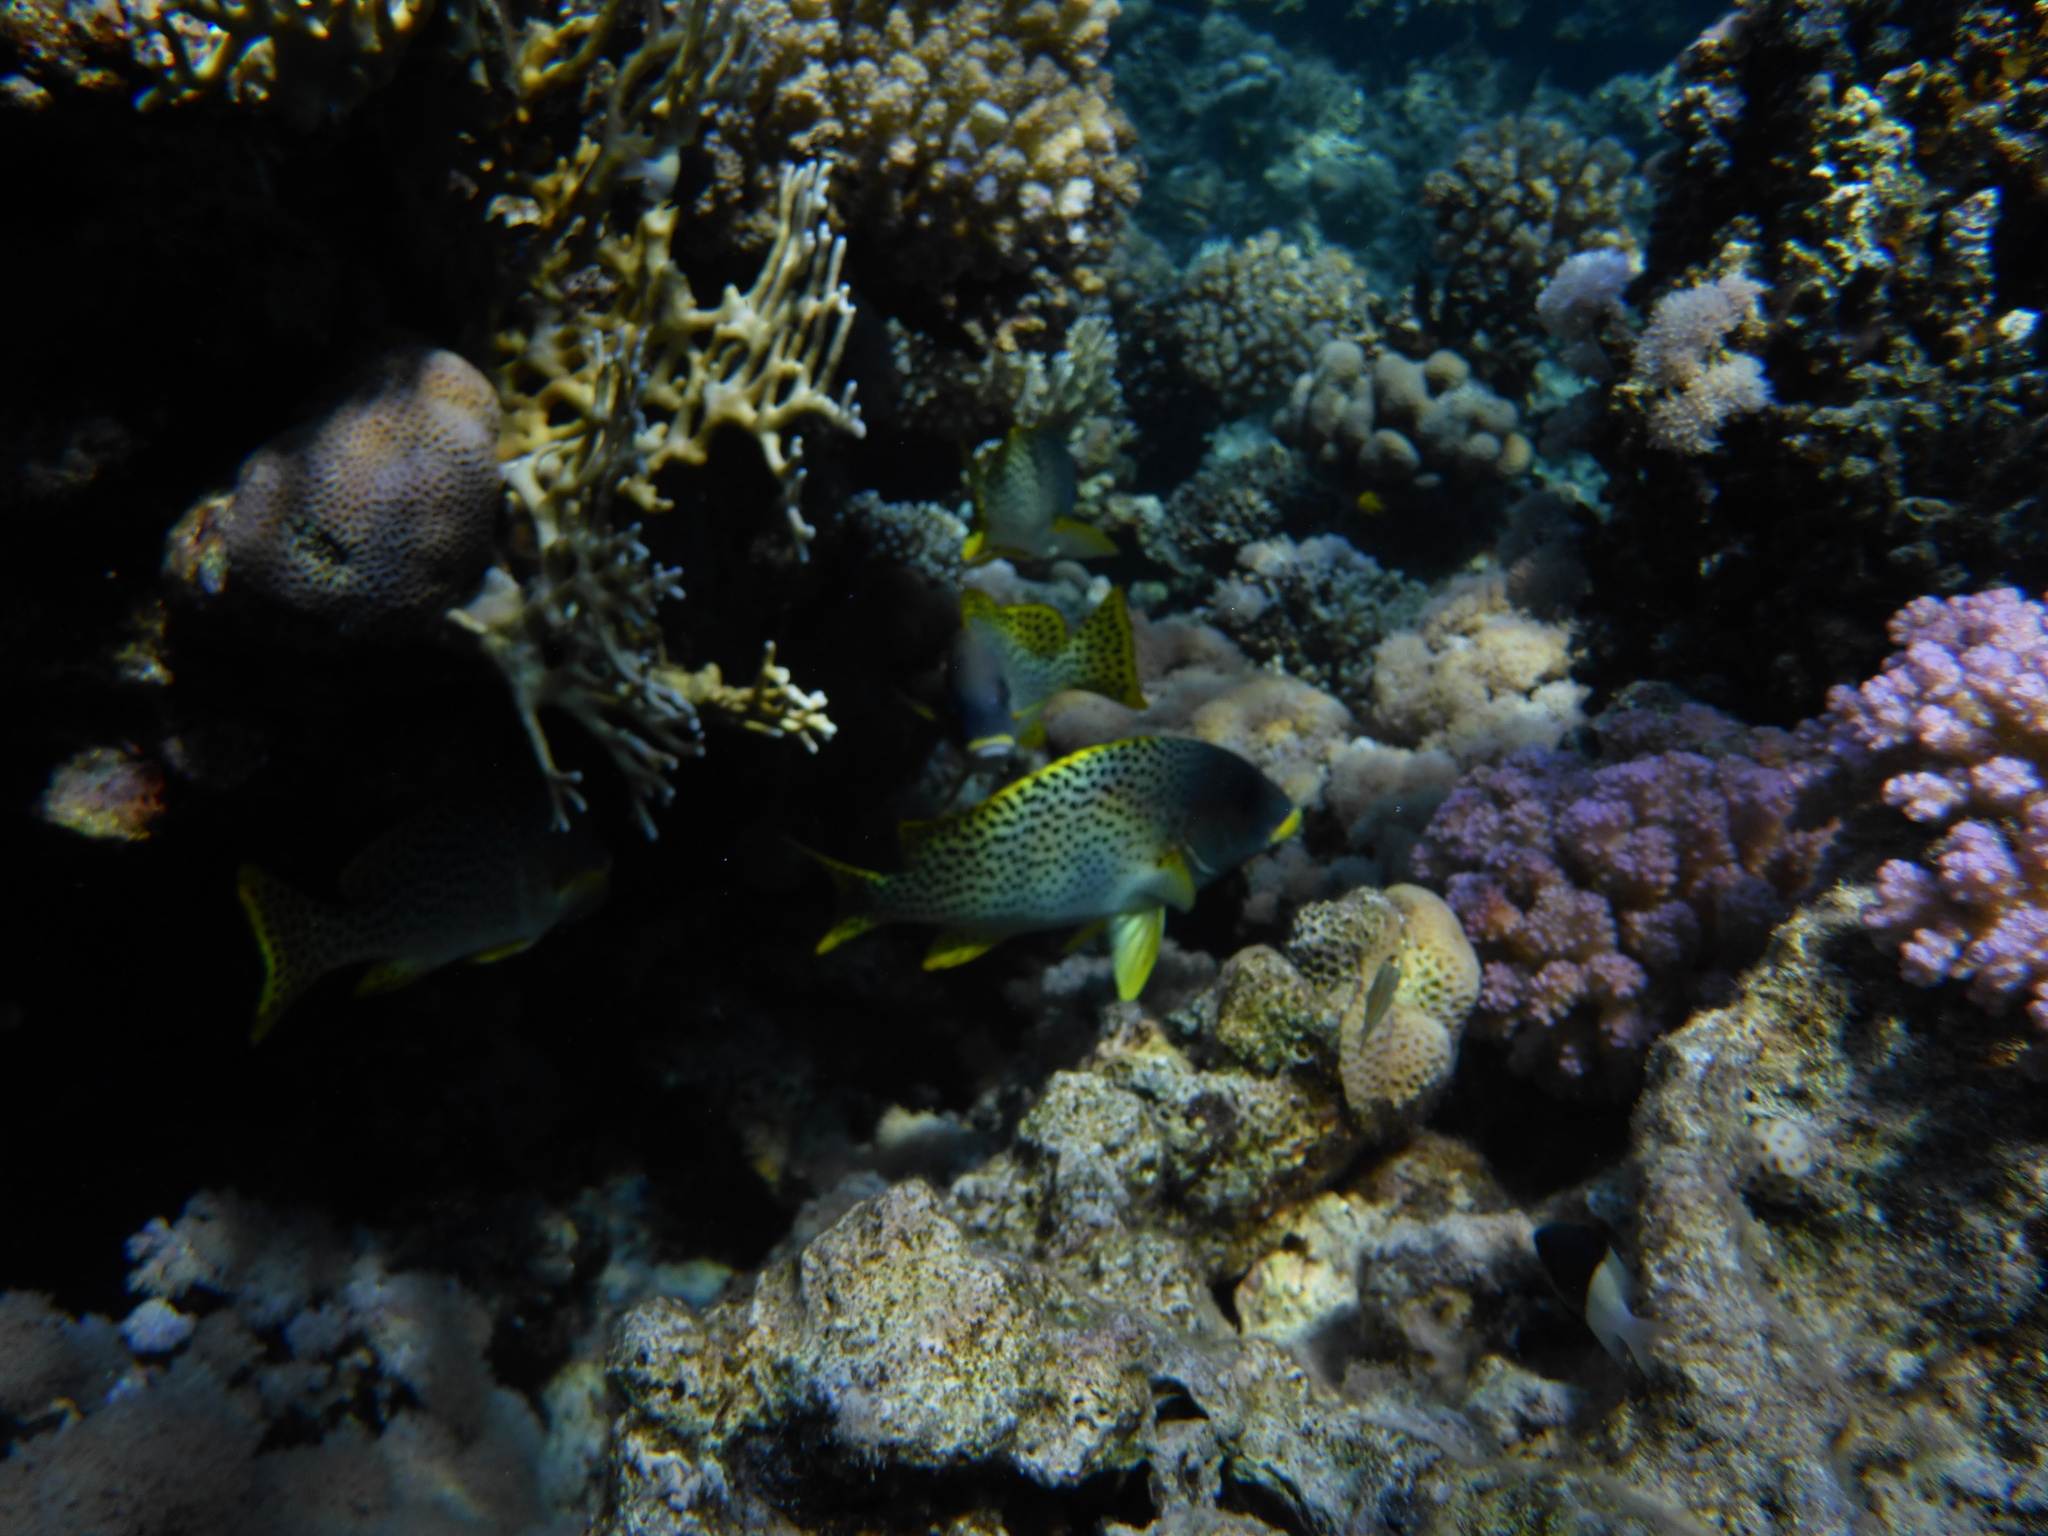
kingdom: Animalia
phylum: Chordata
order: Perciformes
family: Haemulidae
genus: Plectorhinchus
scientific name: Plectorhinchus gaterinus
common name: Blackspotted rubberlip
